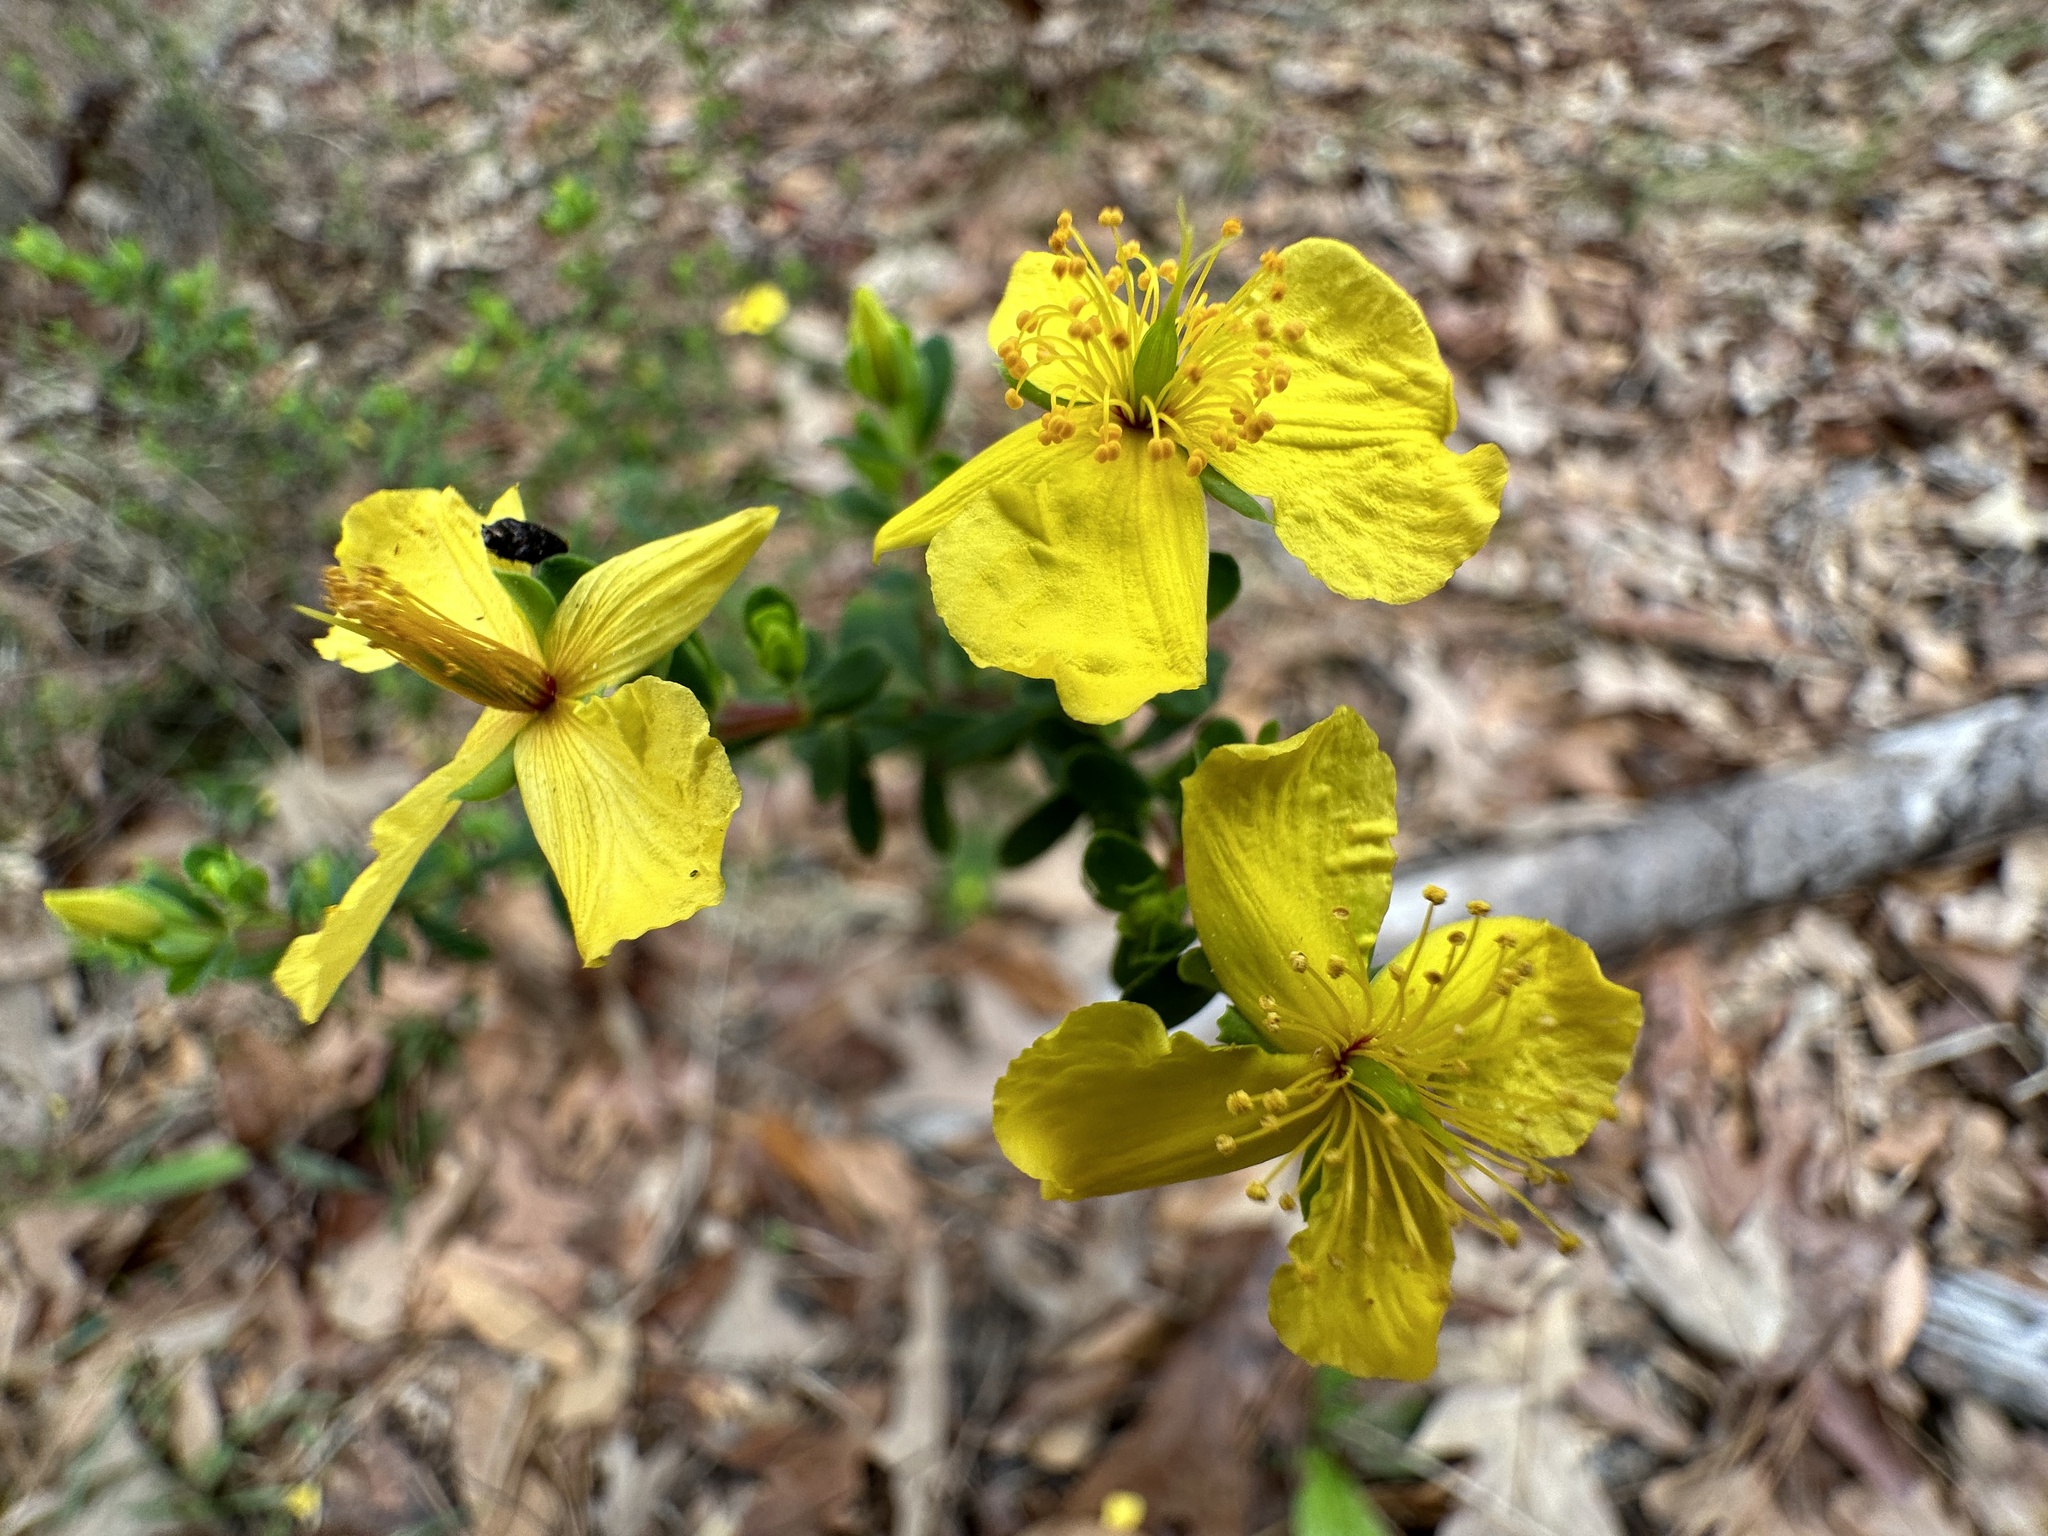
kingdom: Plantae
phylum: Tracheophyta
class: Magnoliopsida
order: Malpighiales
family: Hypericaceae
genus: Hypericum
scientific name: Hypericum microsepalum
